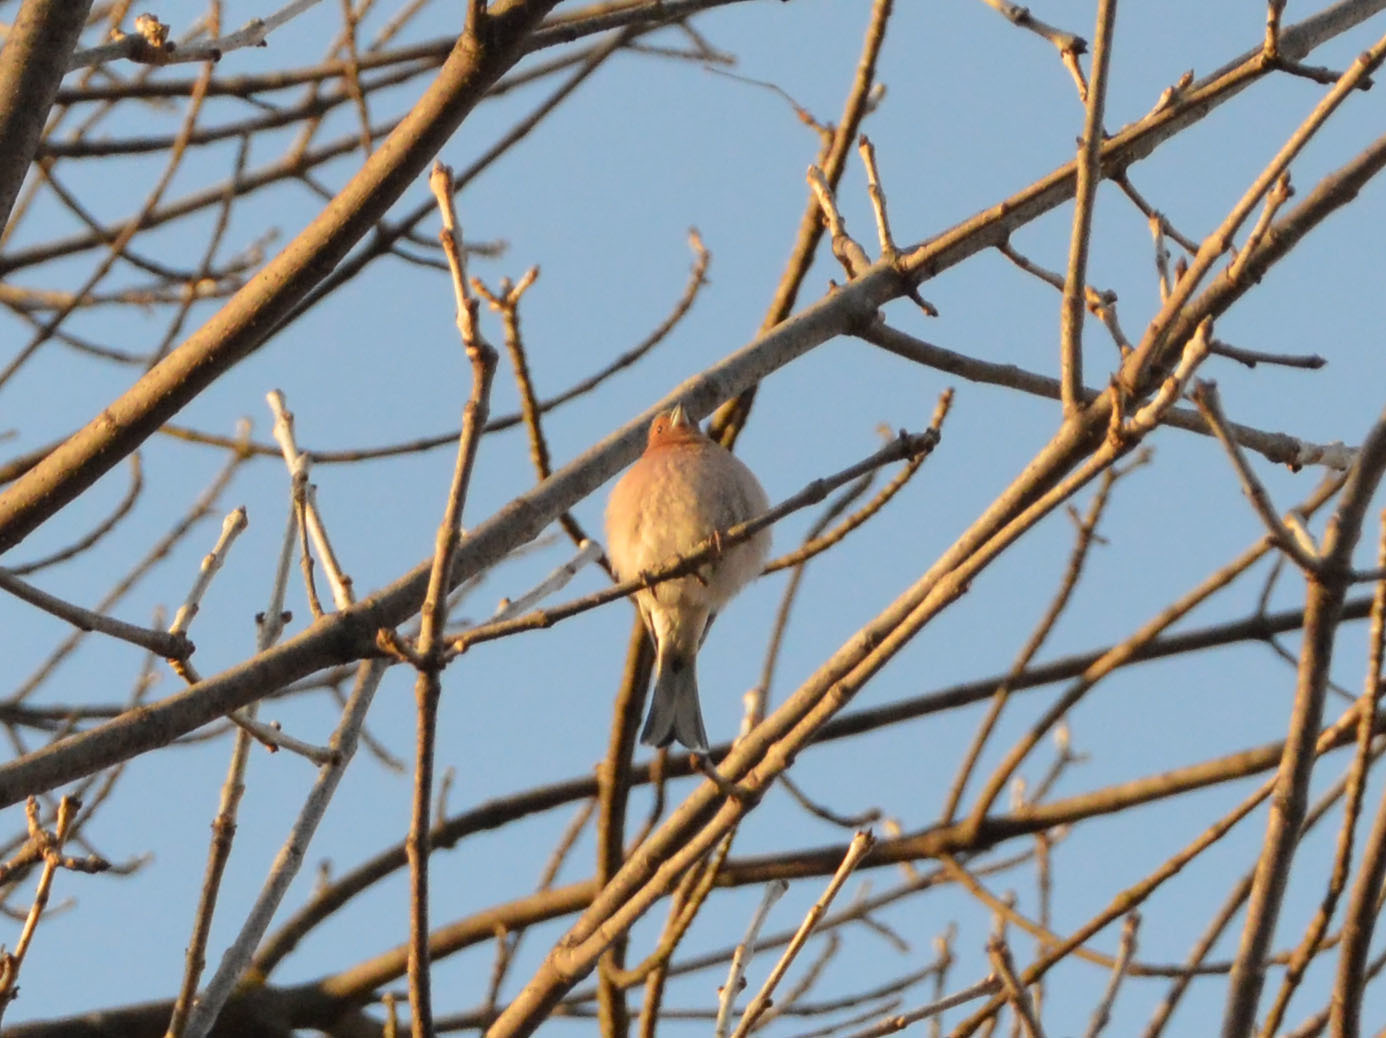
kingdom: Animalia
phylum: Chordata
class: Aves
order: Passeriformes
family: Fringillidae
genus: Fringilla
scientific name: Fringilla coelebs
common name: Common chaffinch
